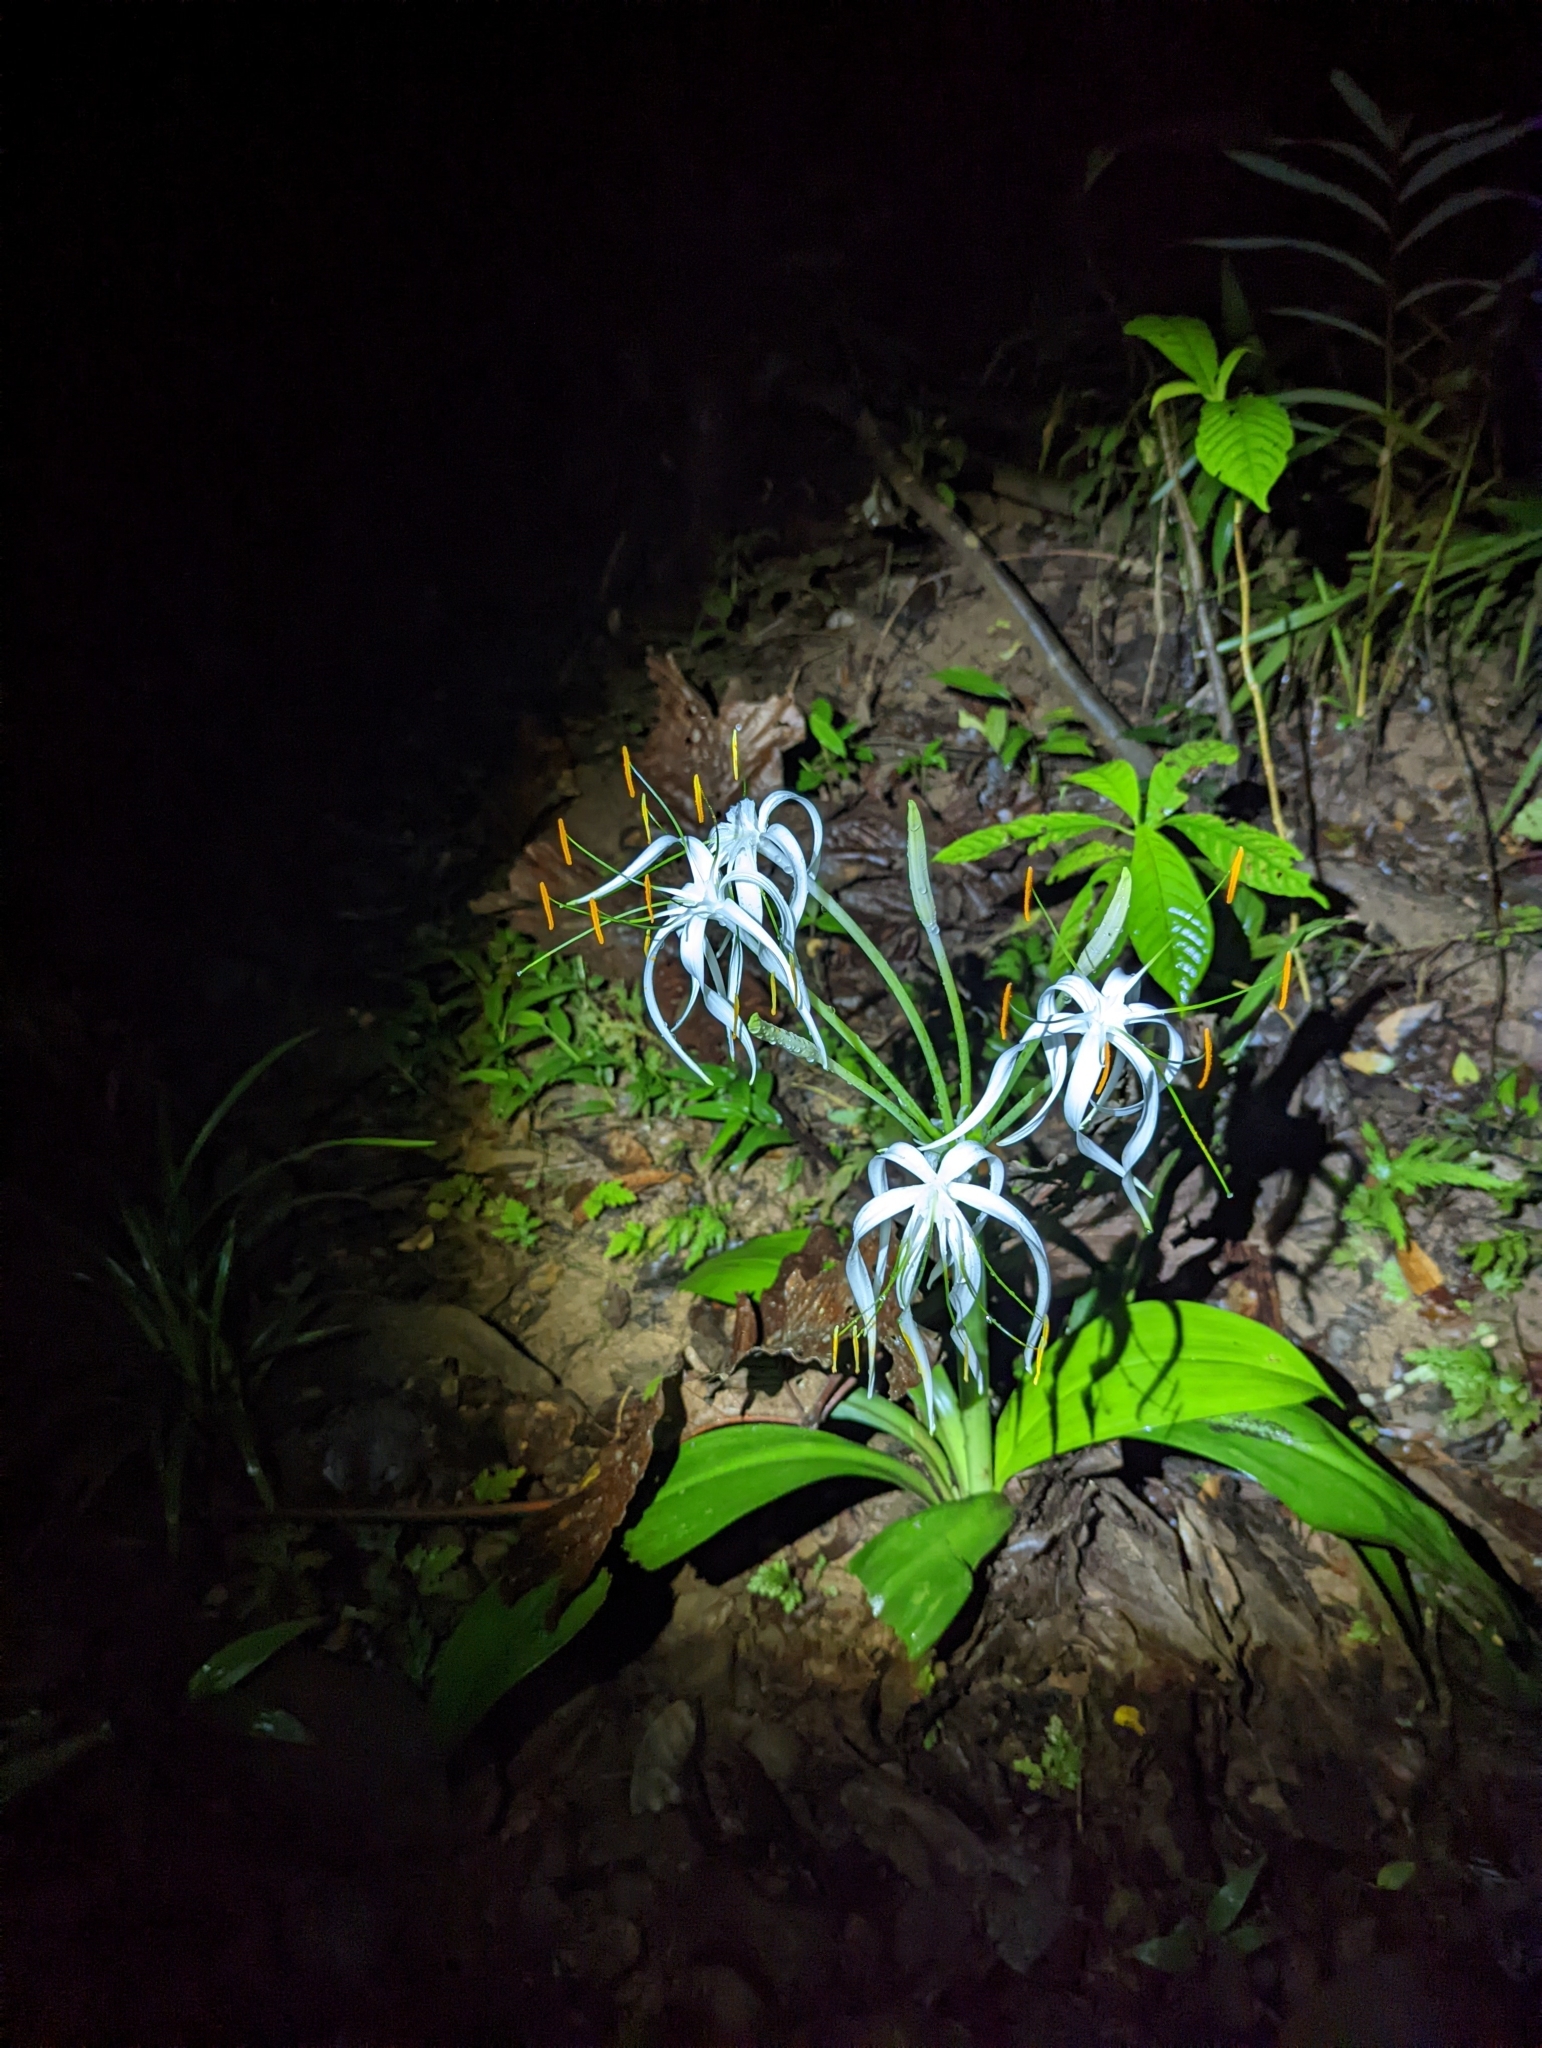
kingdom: Plantae
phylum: Tracheophyta
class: Liliopsida
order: Asparagales
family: Amaryllidaceae
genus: Hymenocallis
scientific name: Hymenocallis littoralis
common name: Beach spiderlily
